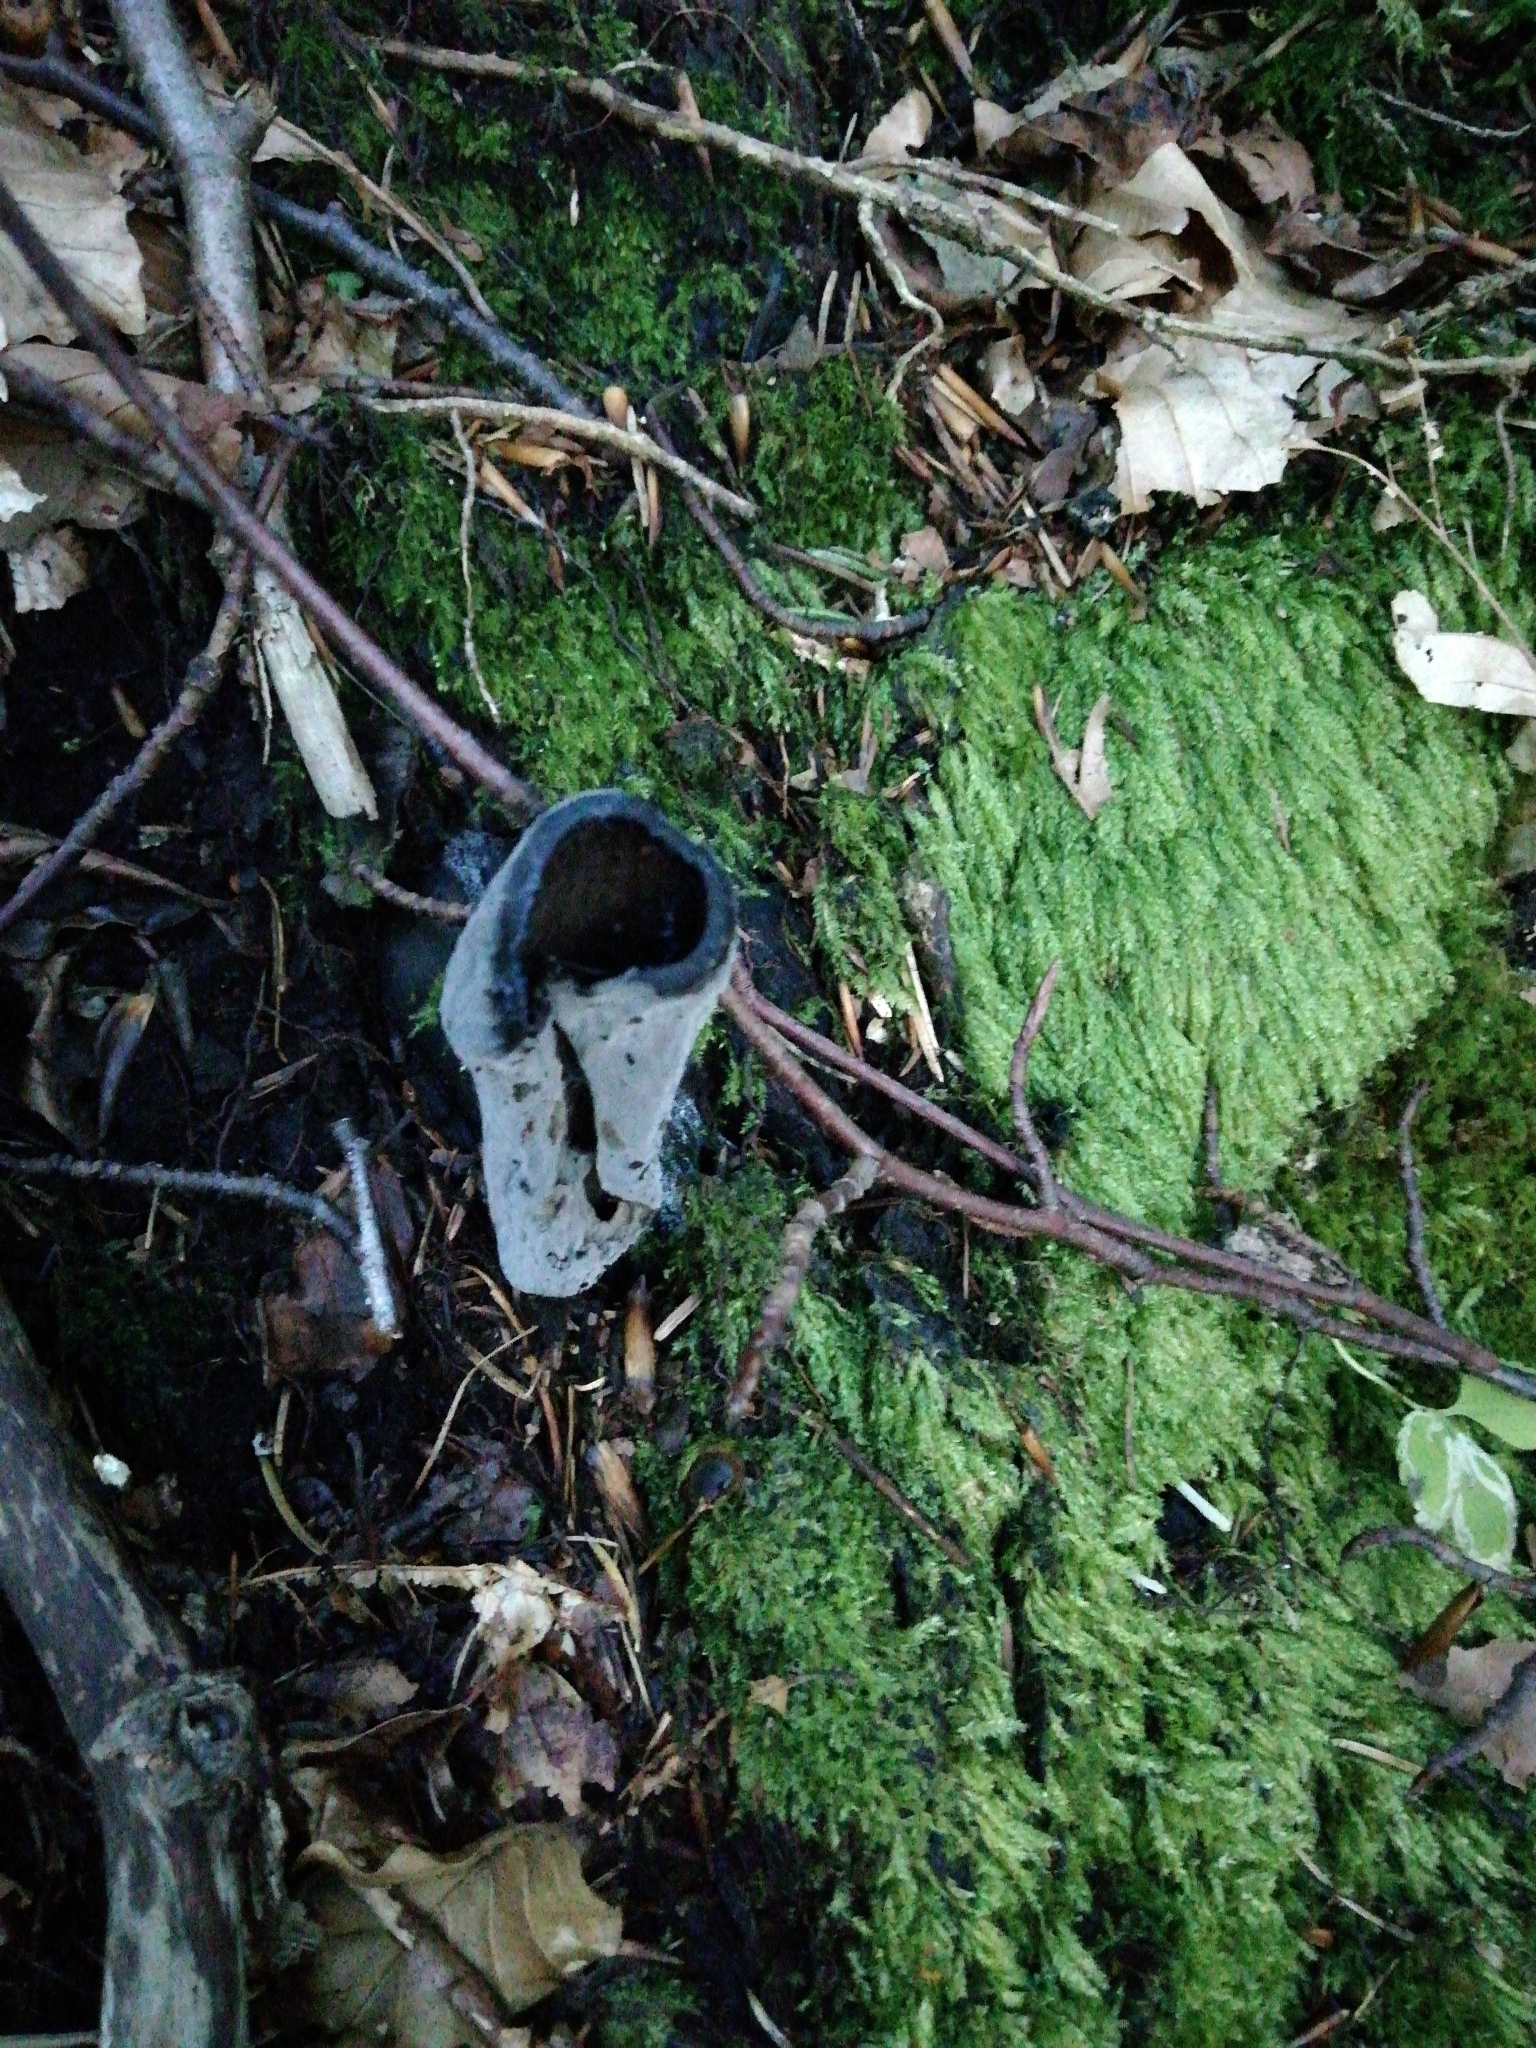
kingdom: Fungi
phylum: Basidiomycota
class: Agaricomycetes
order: Cantharellales
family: Hydnaceae
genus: Craterellus
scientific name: Craterellus cornucopioides
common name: Horn of plenty
